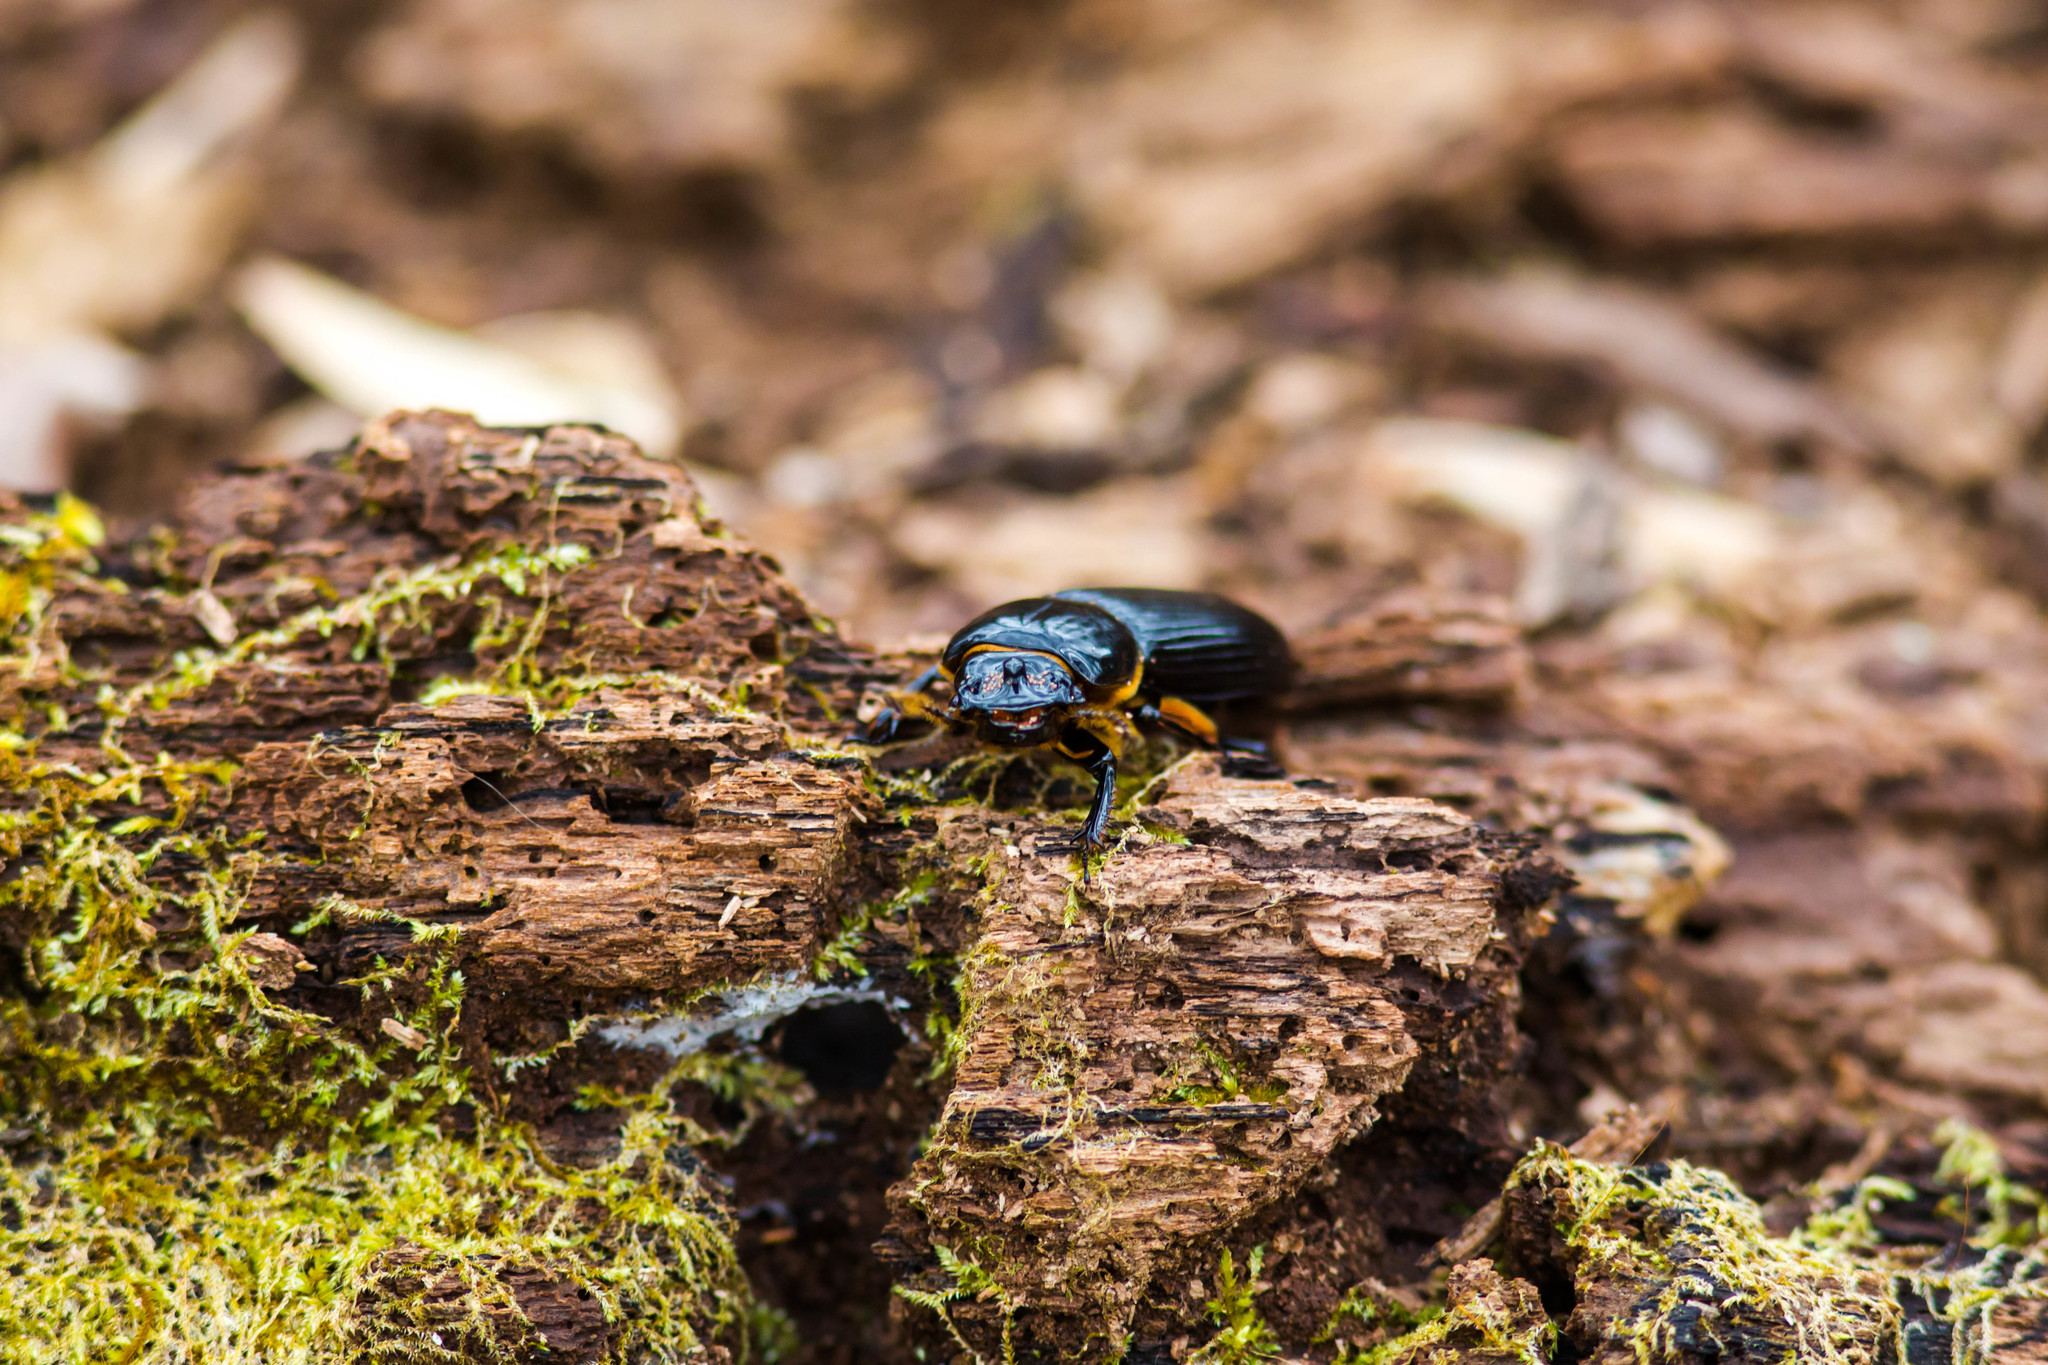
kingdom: Animalia
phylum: Arthropoda
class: Insecta
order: Coleoptera
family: Passalidae
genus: Odontotaenius
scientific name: Odontotaenius disjunctus
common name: Patent leather beetle
